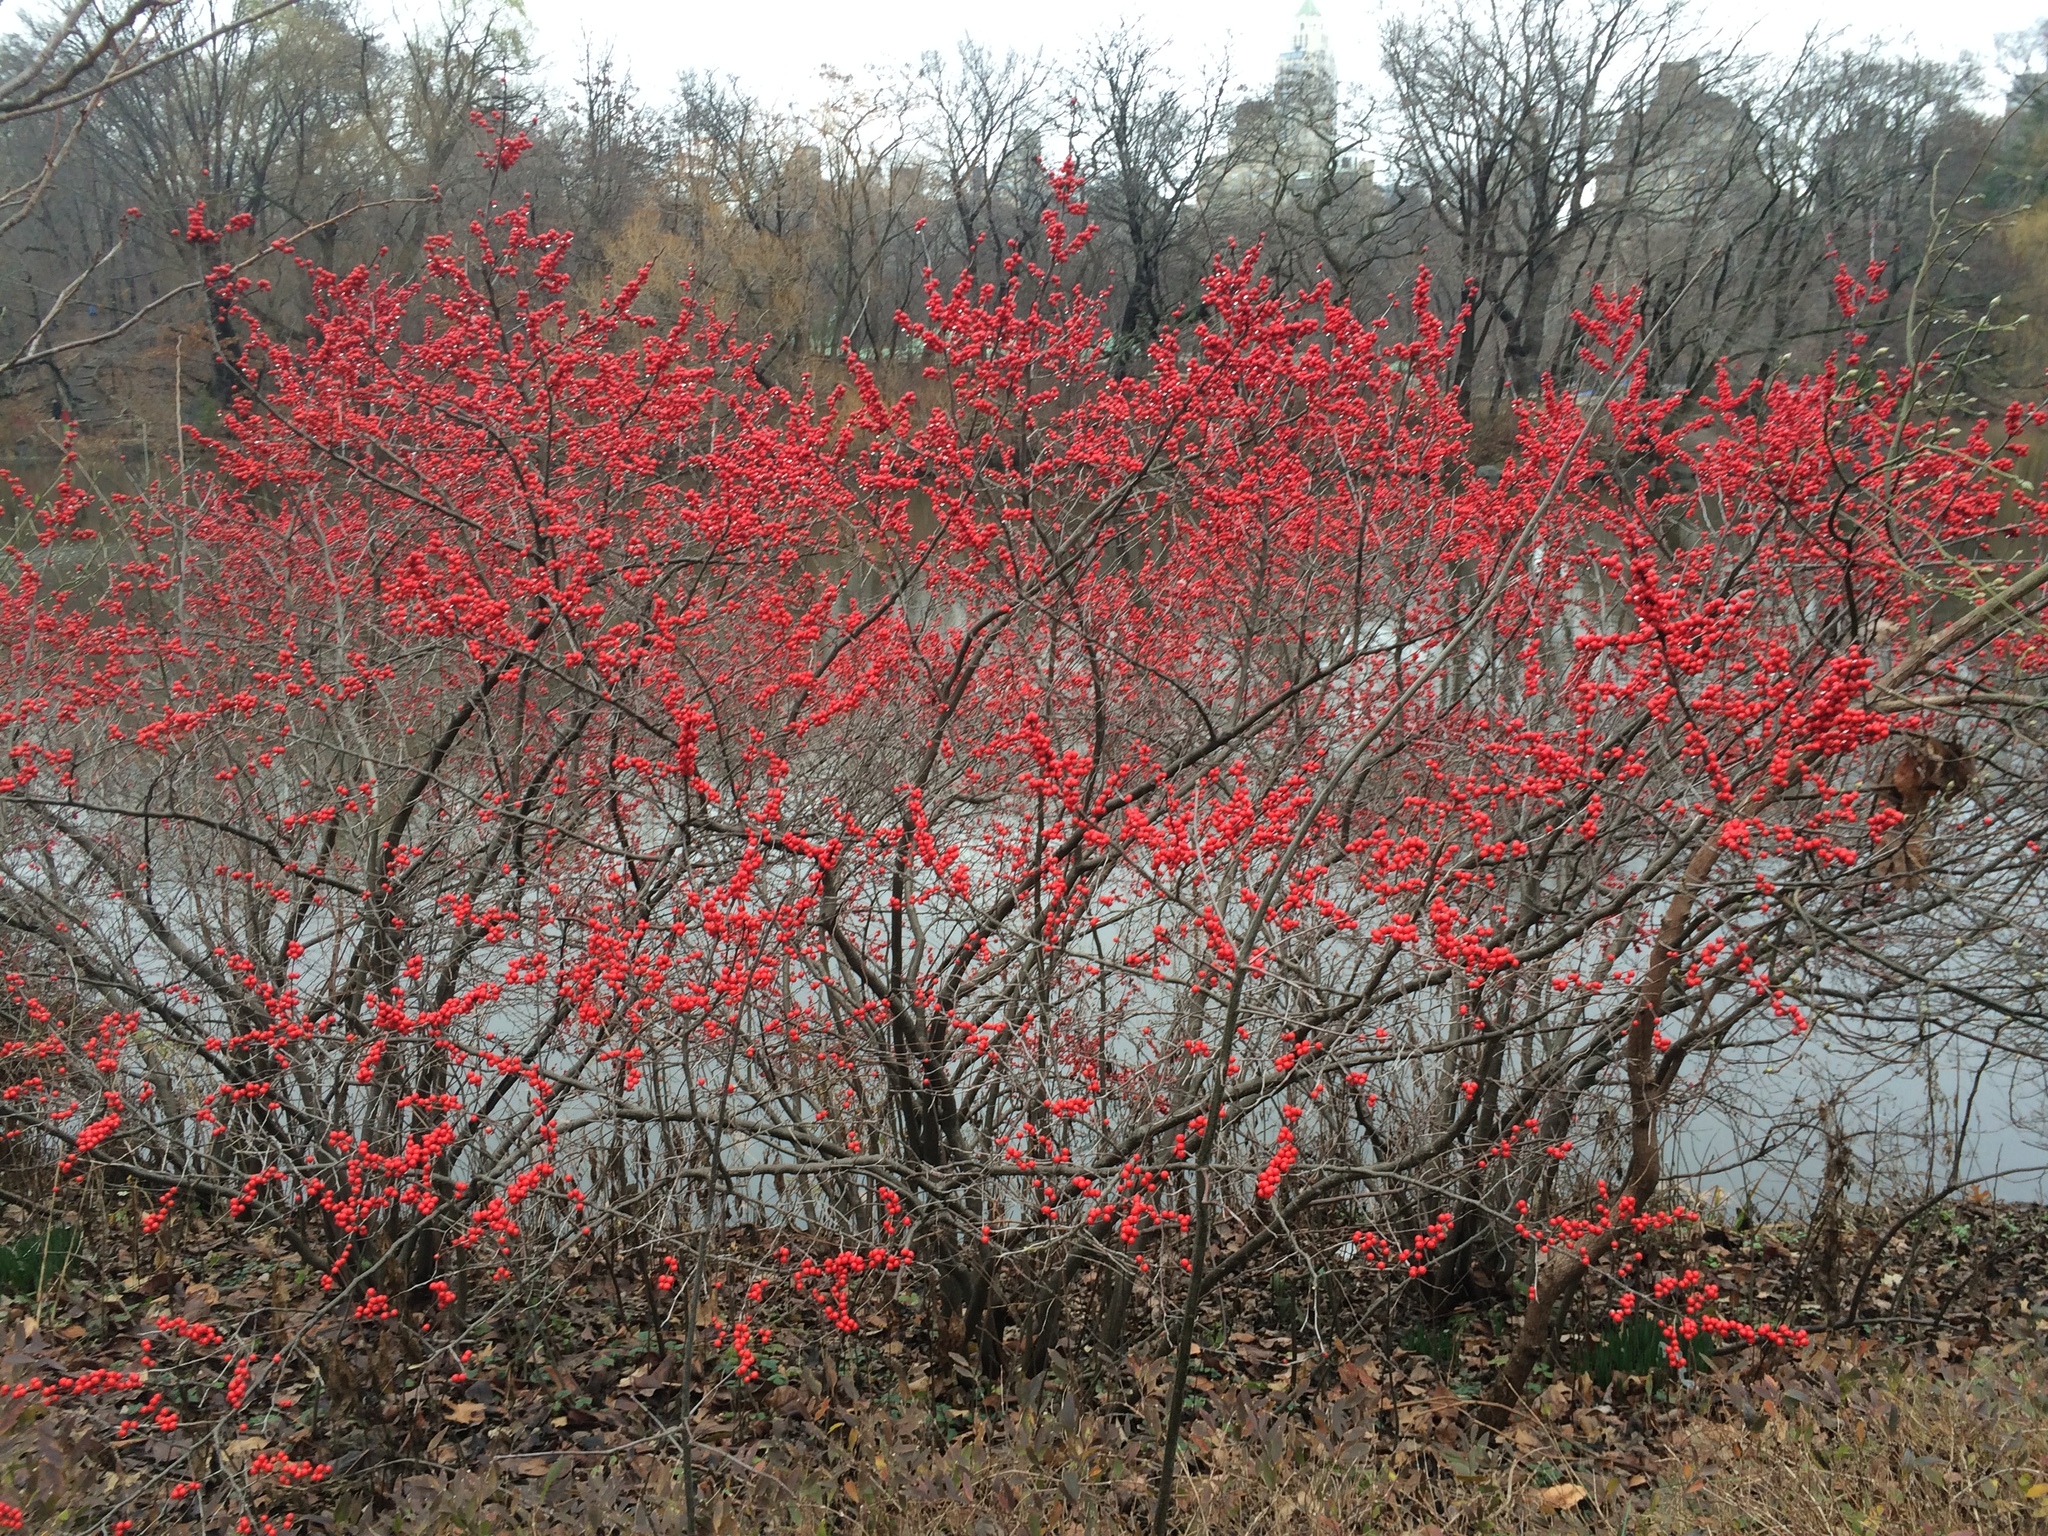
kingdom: Plantae
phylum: Tracheophyta
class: Magnoliopsida
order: Aquifoliales
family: Aquifoliaceae
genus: Ilex
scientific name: Ilex verticillata
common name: Virginia winterberry
